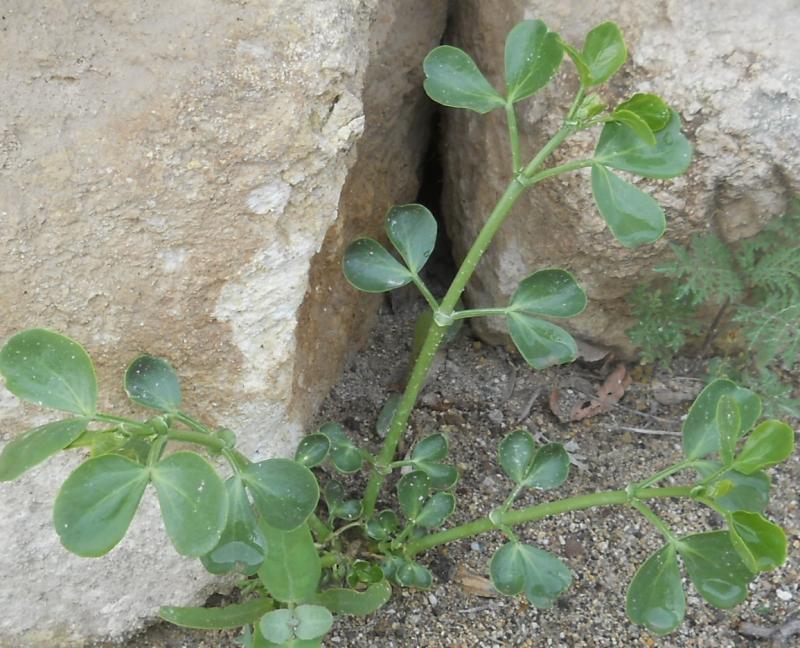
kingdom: Plantae
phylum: Tracheophyta
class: Magnoliopsida
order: Zygophyllales
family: Zygophyllaceae
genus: Zygophyllum
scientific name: Zygophyllum fabago
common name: Syrian beancaper
